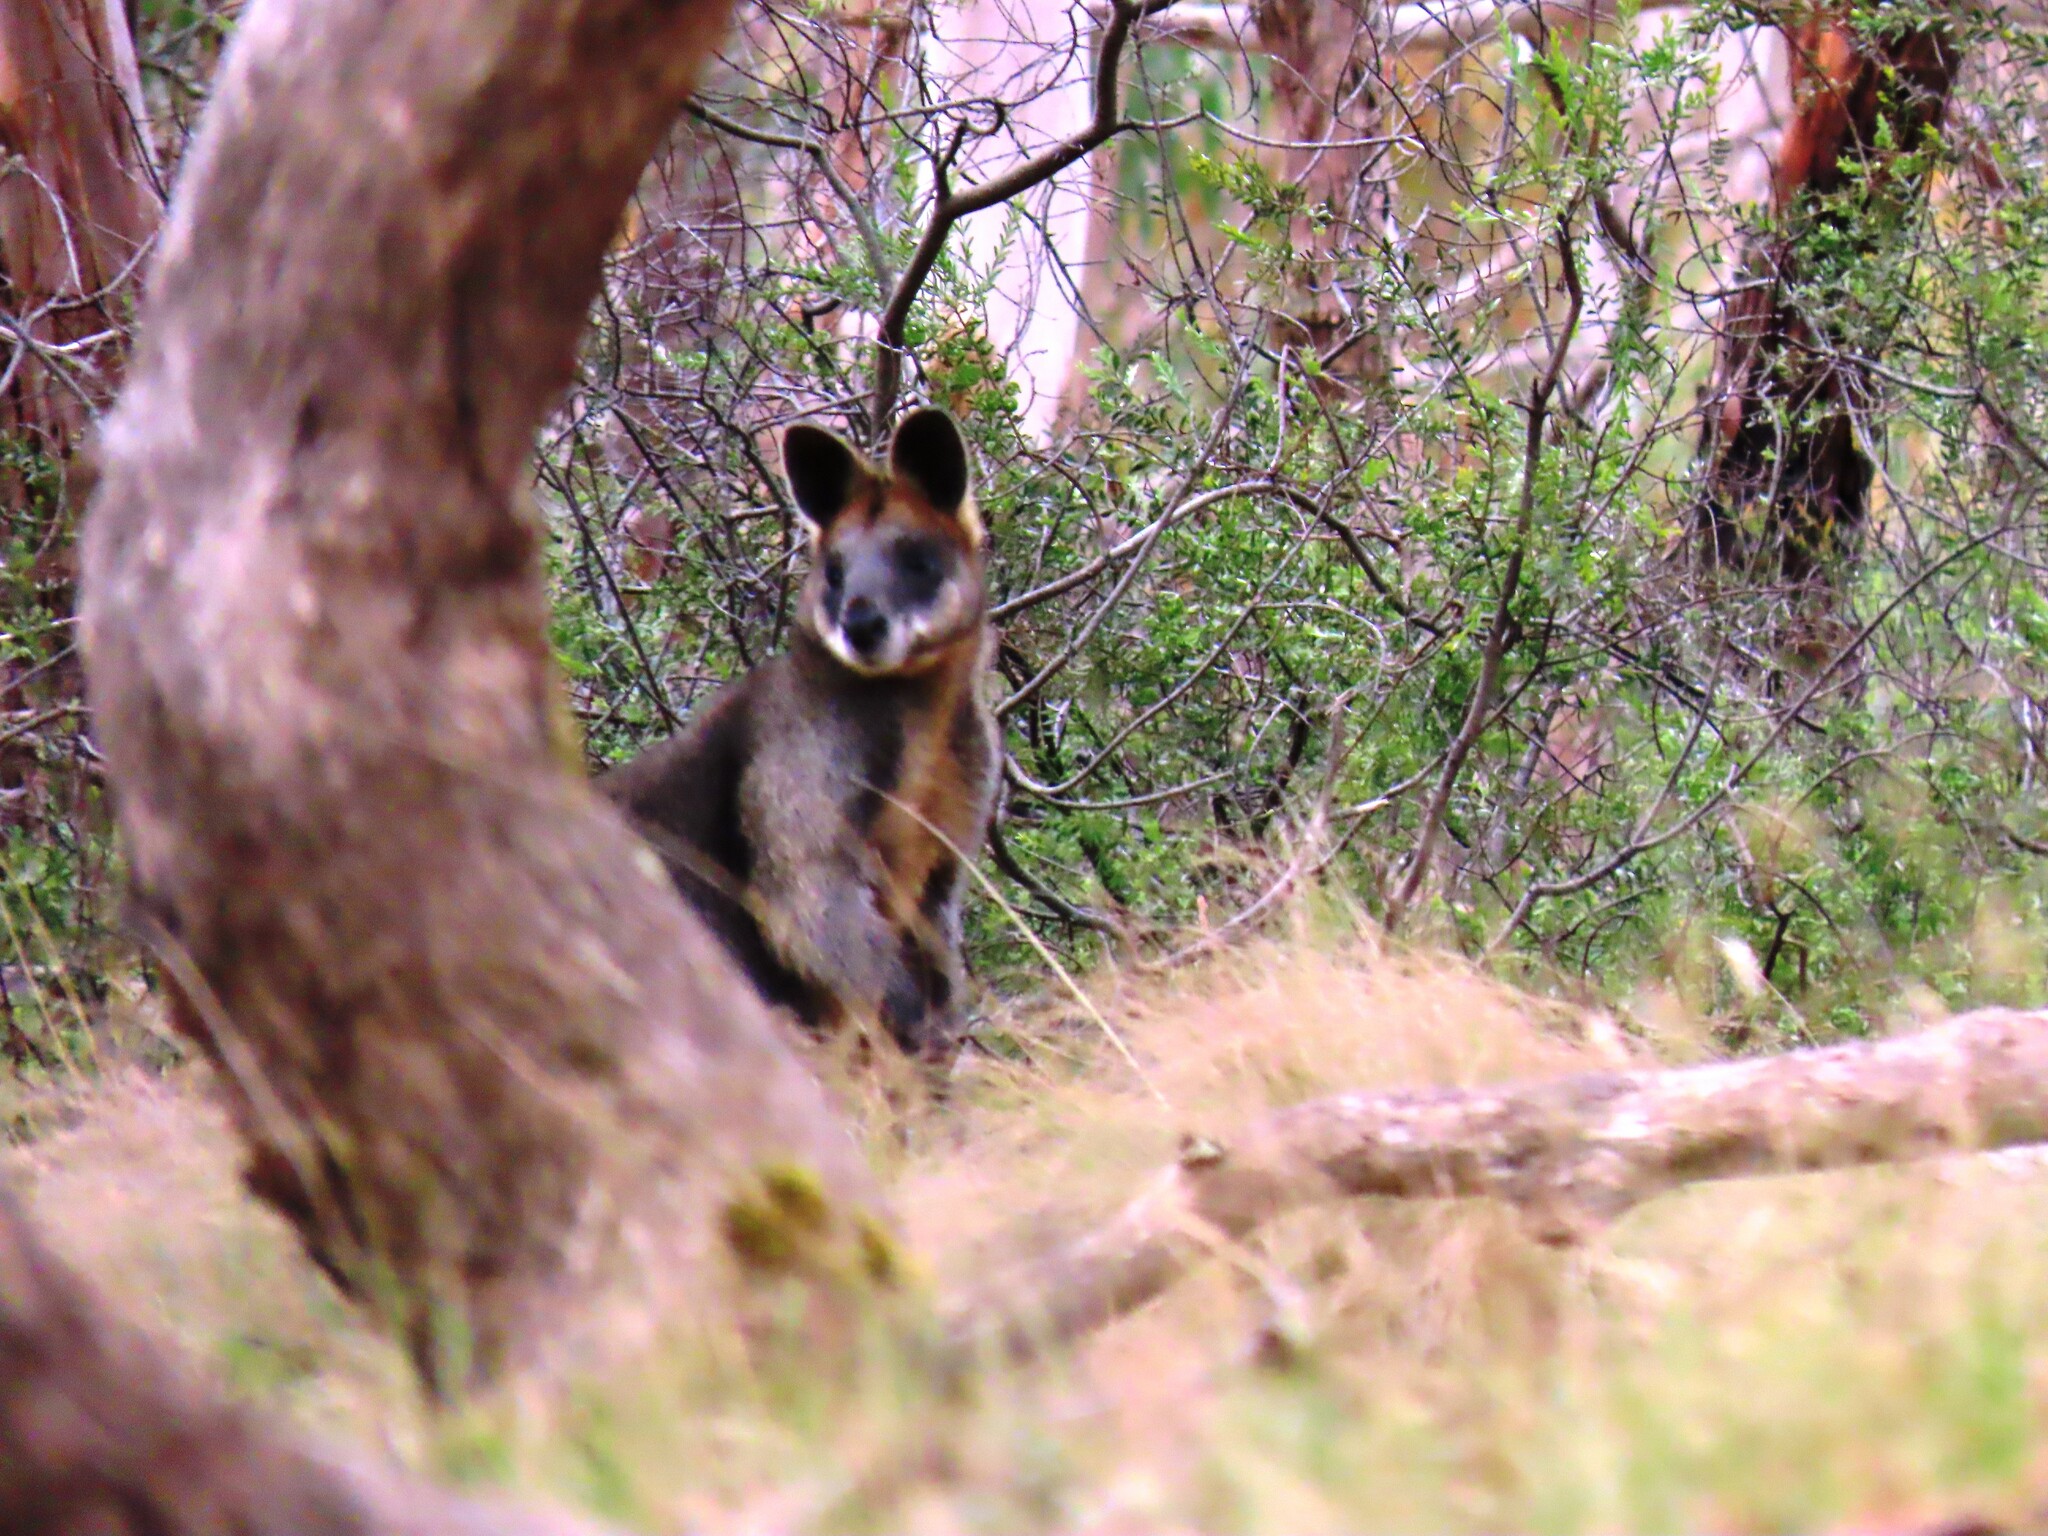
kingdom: Animalia
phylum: Chordata
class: Mammalia
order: Diprotodontia
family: Macropodidae
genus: Wallabia
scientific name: Wallabia bicolor
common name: Swamp wallaby
